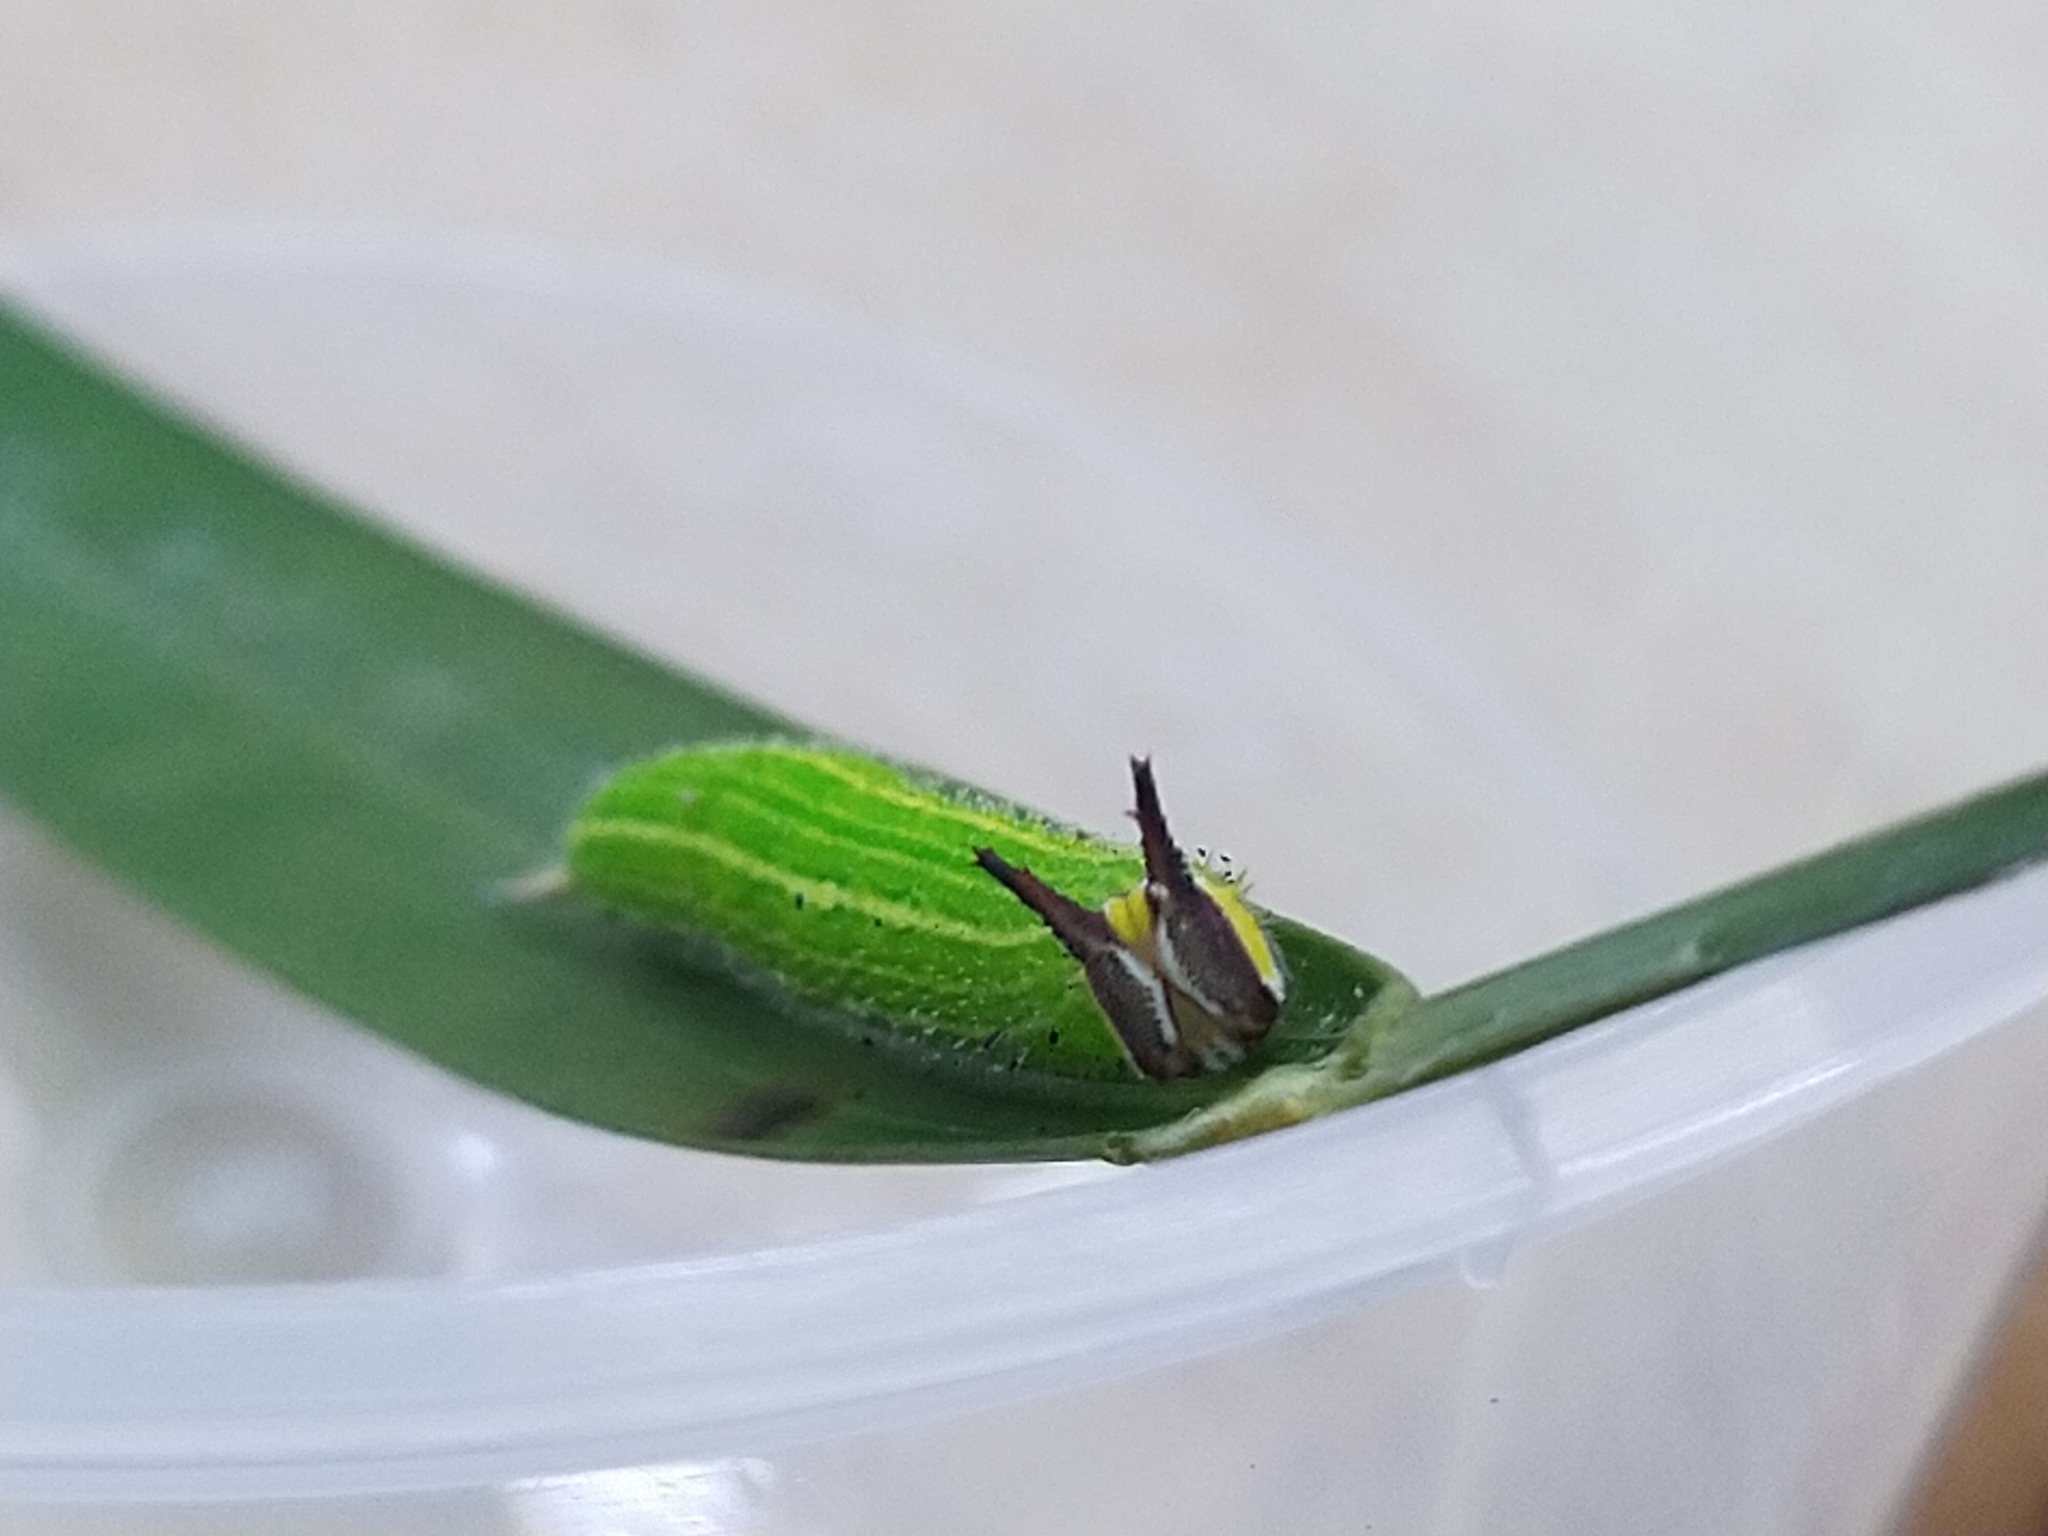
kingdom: Animalia
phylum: Arthropoda
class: Insecta
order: Lepidoptera
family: Nymphalidae
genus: Elymnias
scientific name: Elymnias hypermnestra
